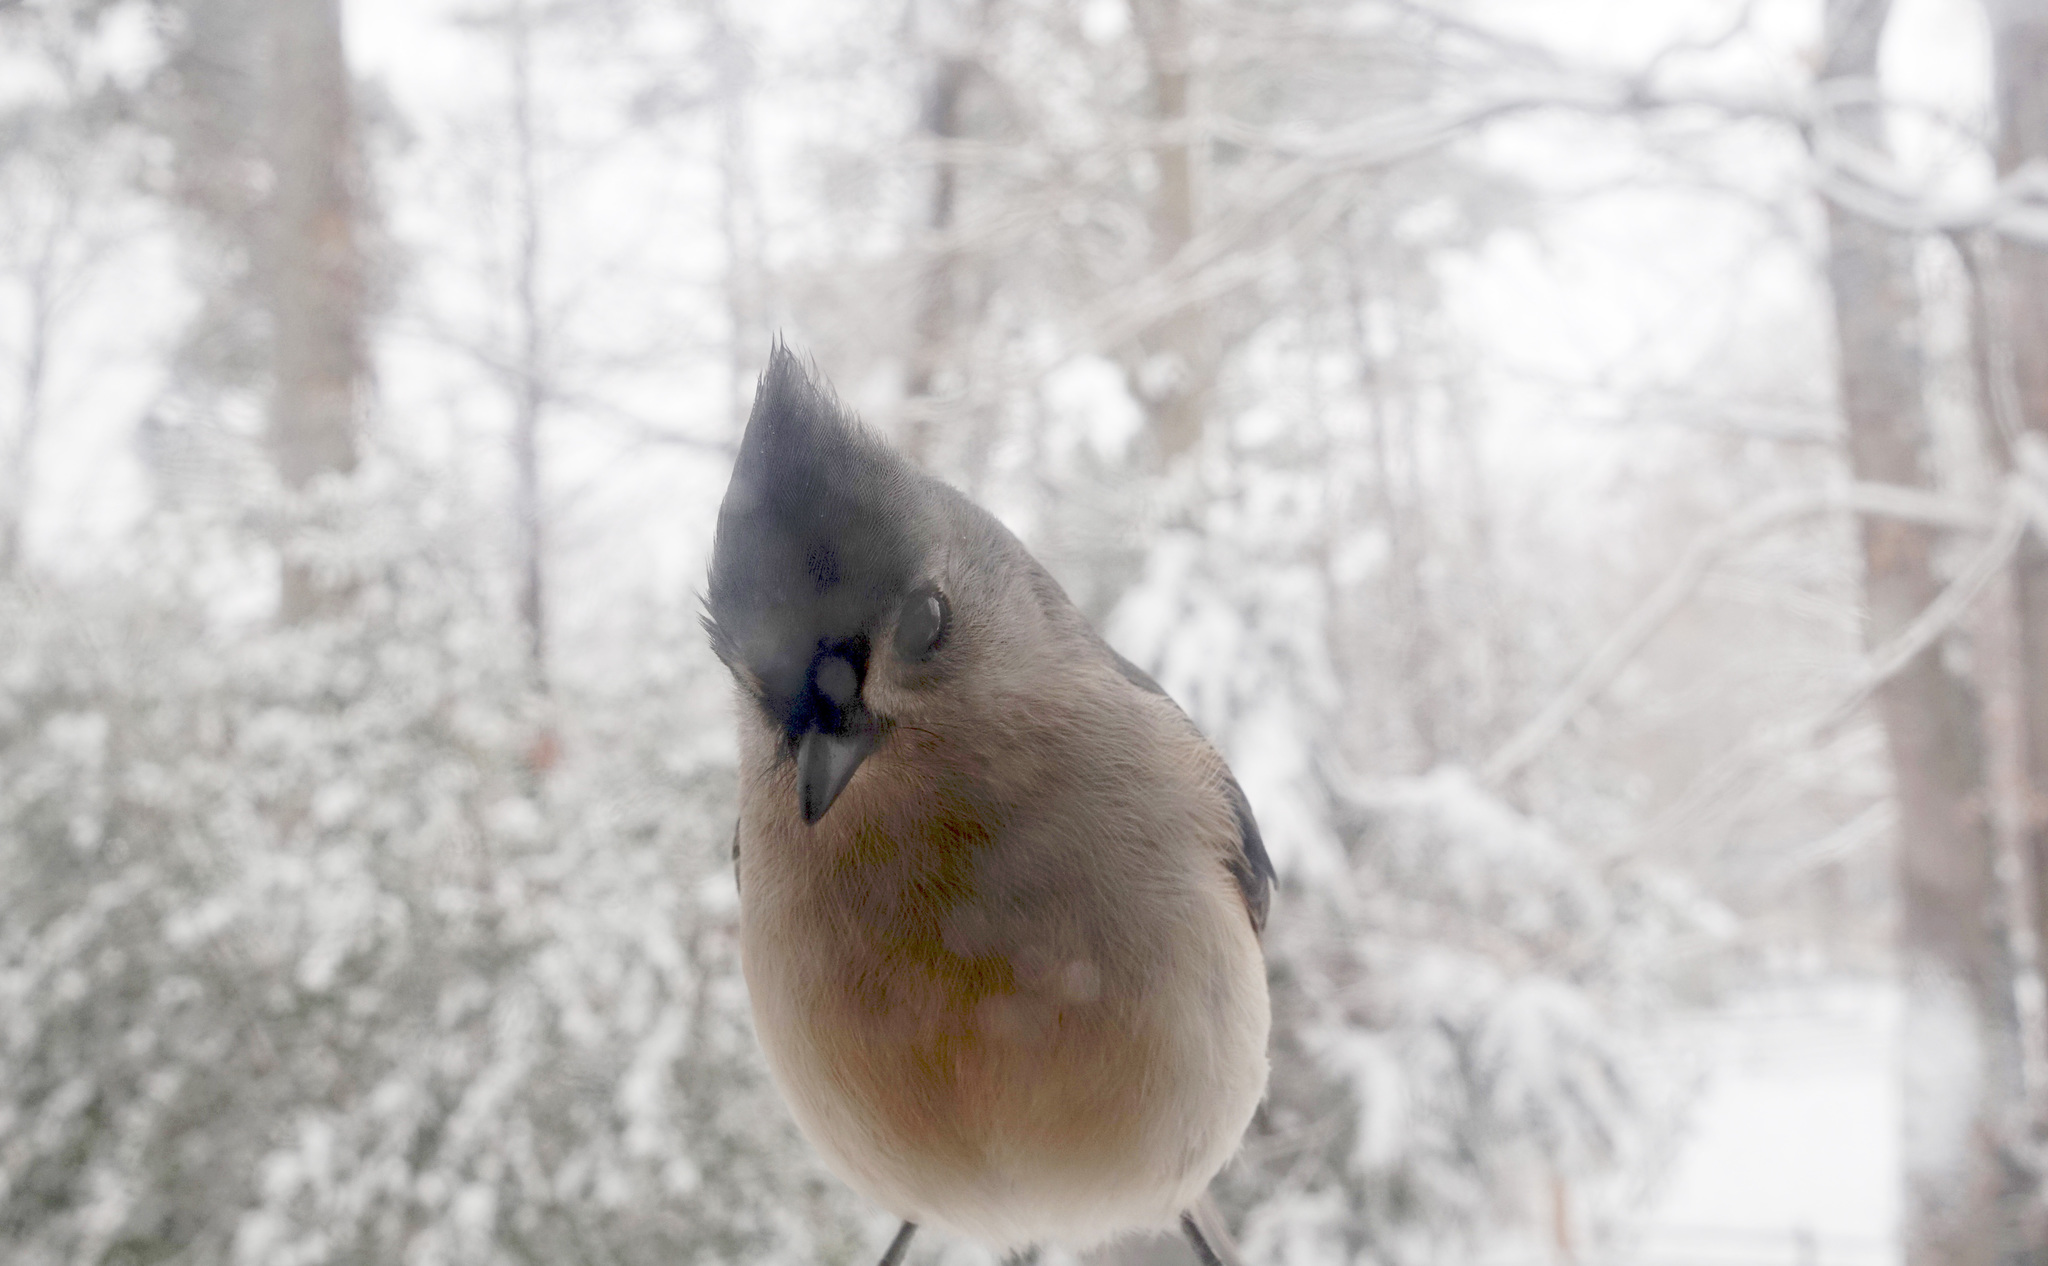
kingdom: Animalia
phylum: Chordata
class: Aves
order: Passeriformes
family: Paridae
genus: Baeolophus
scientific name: Baeolophus bicolor
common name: Tufted titmouse
